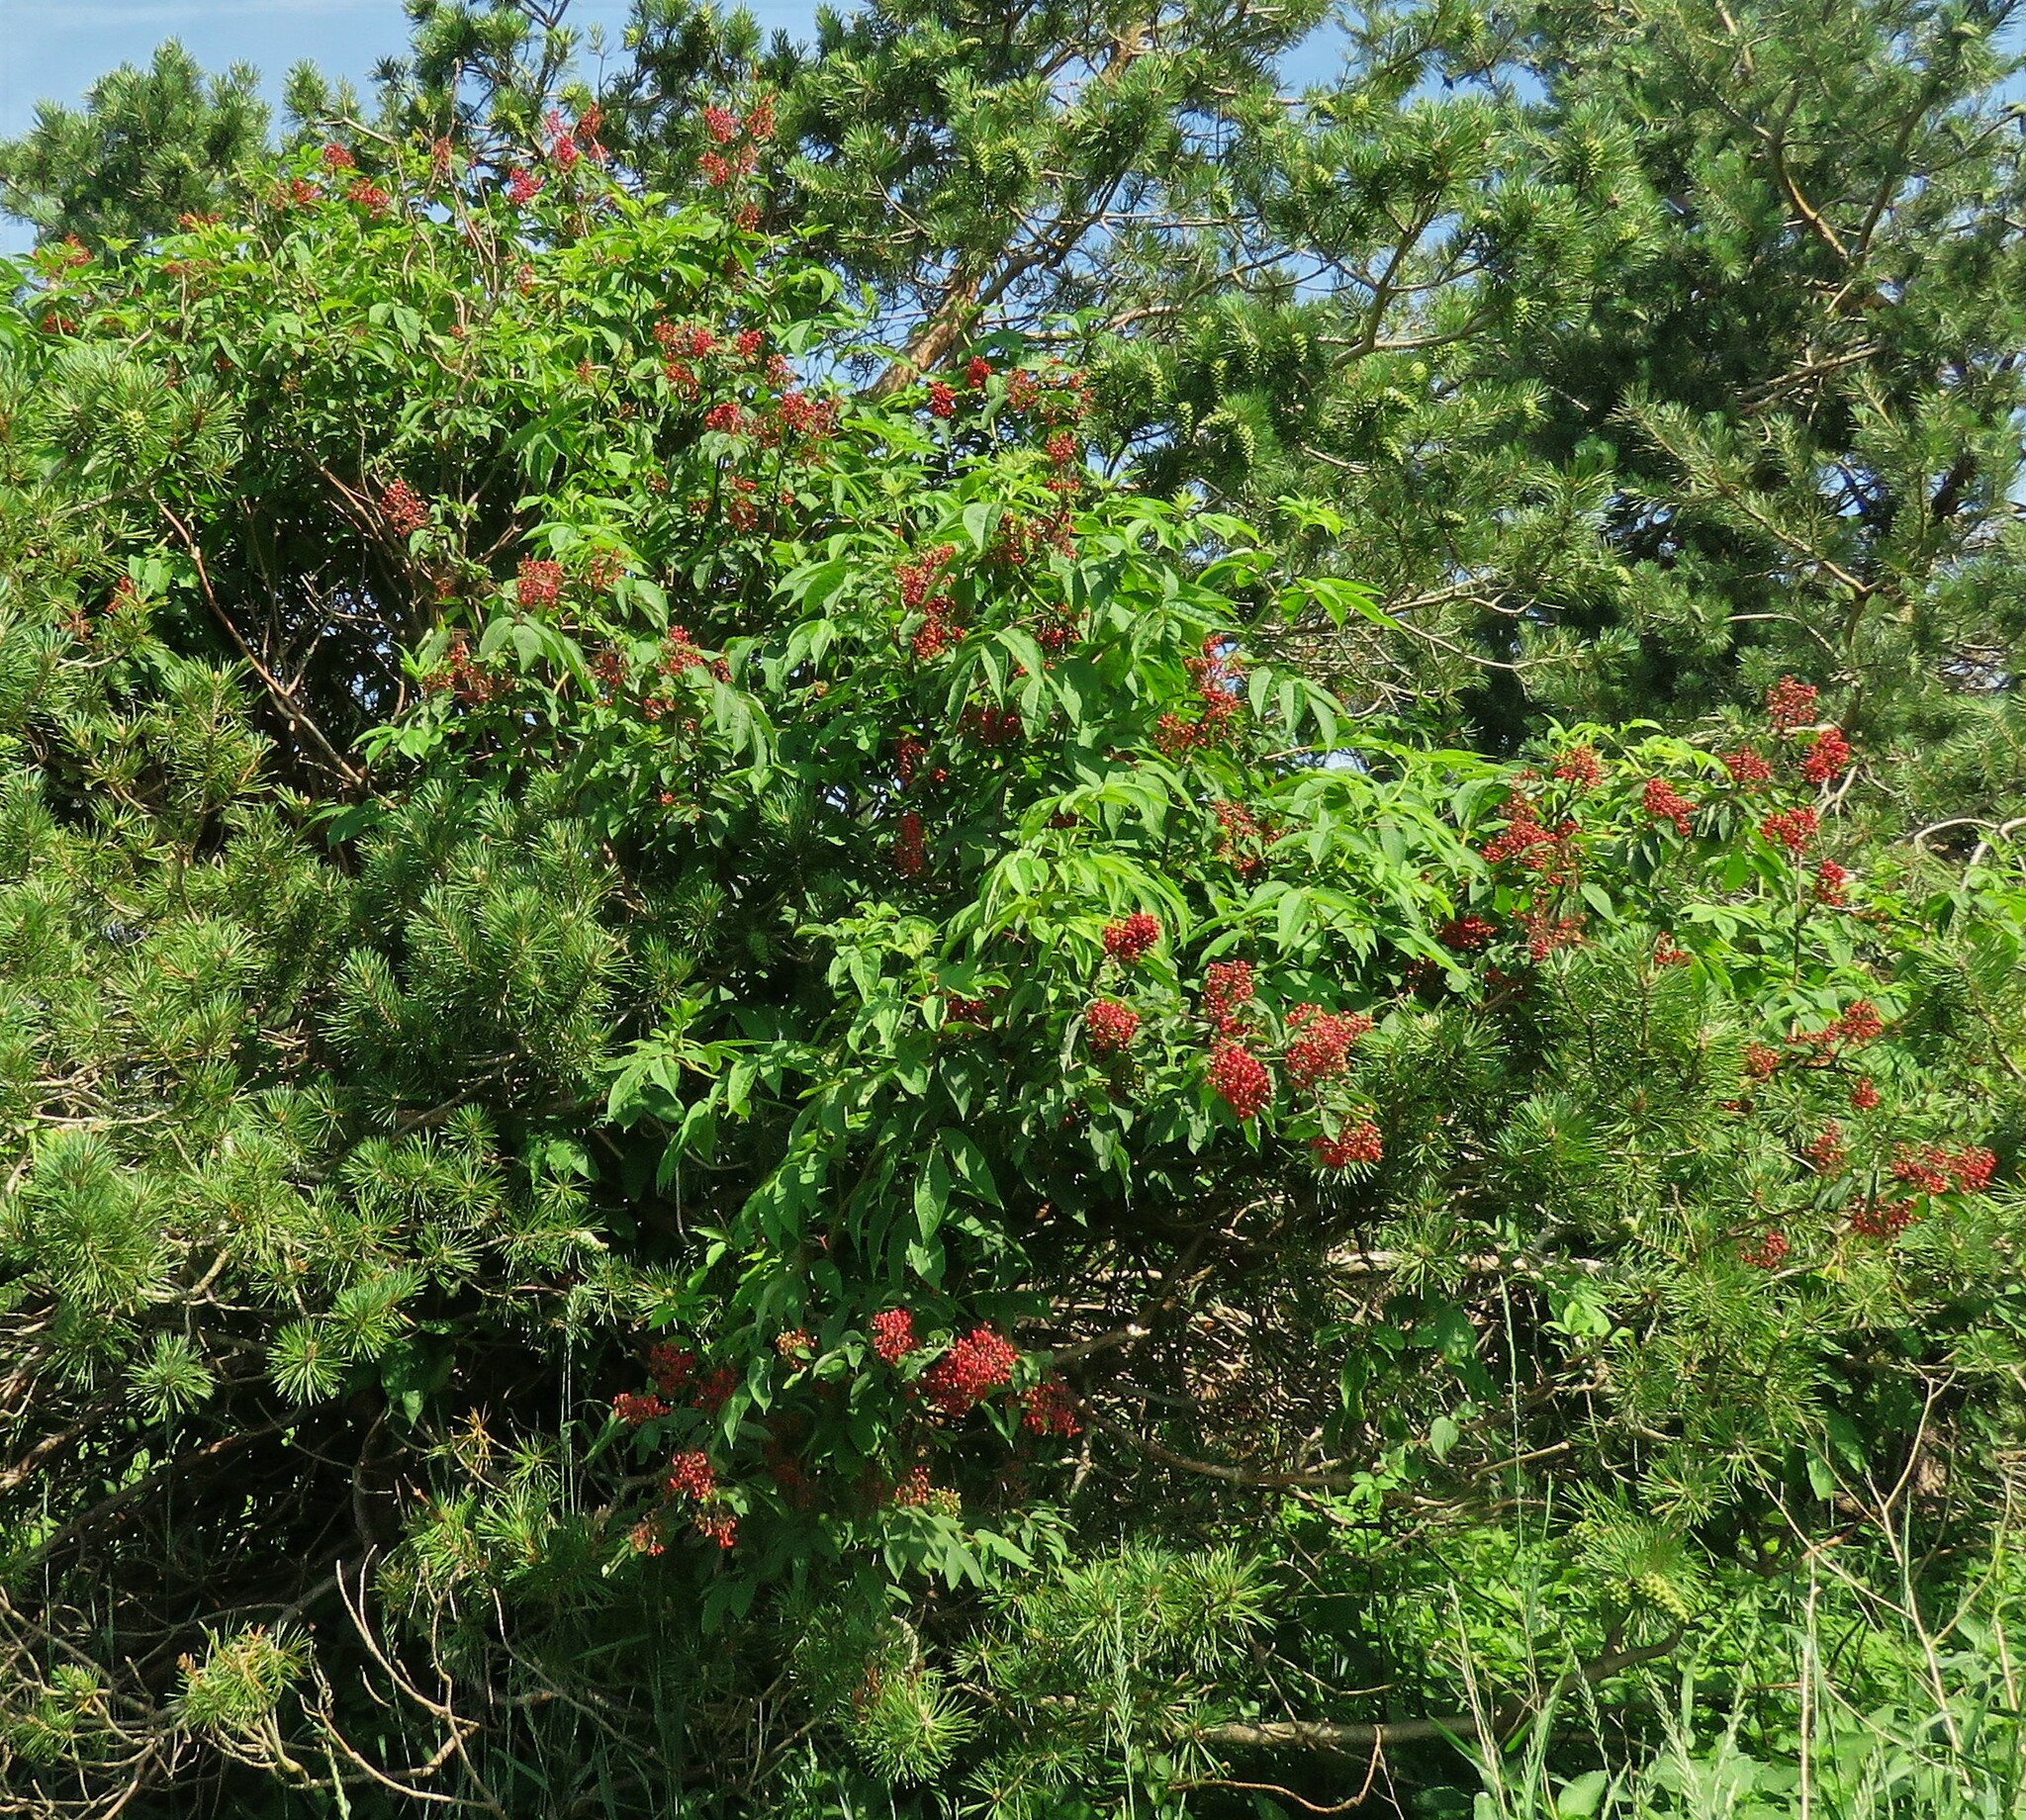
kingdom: Plantae
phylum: Tracheophyta
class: Magnoliopsida
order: Dipsacales
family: Viburnaceae
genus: Sambucus
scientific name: Sambucus racemosa
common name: Red-berried elder
